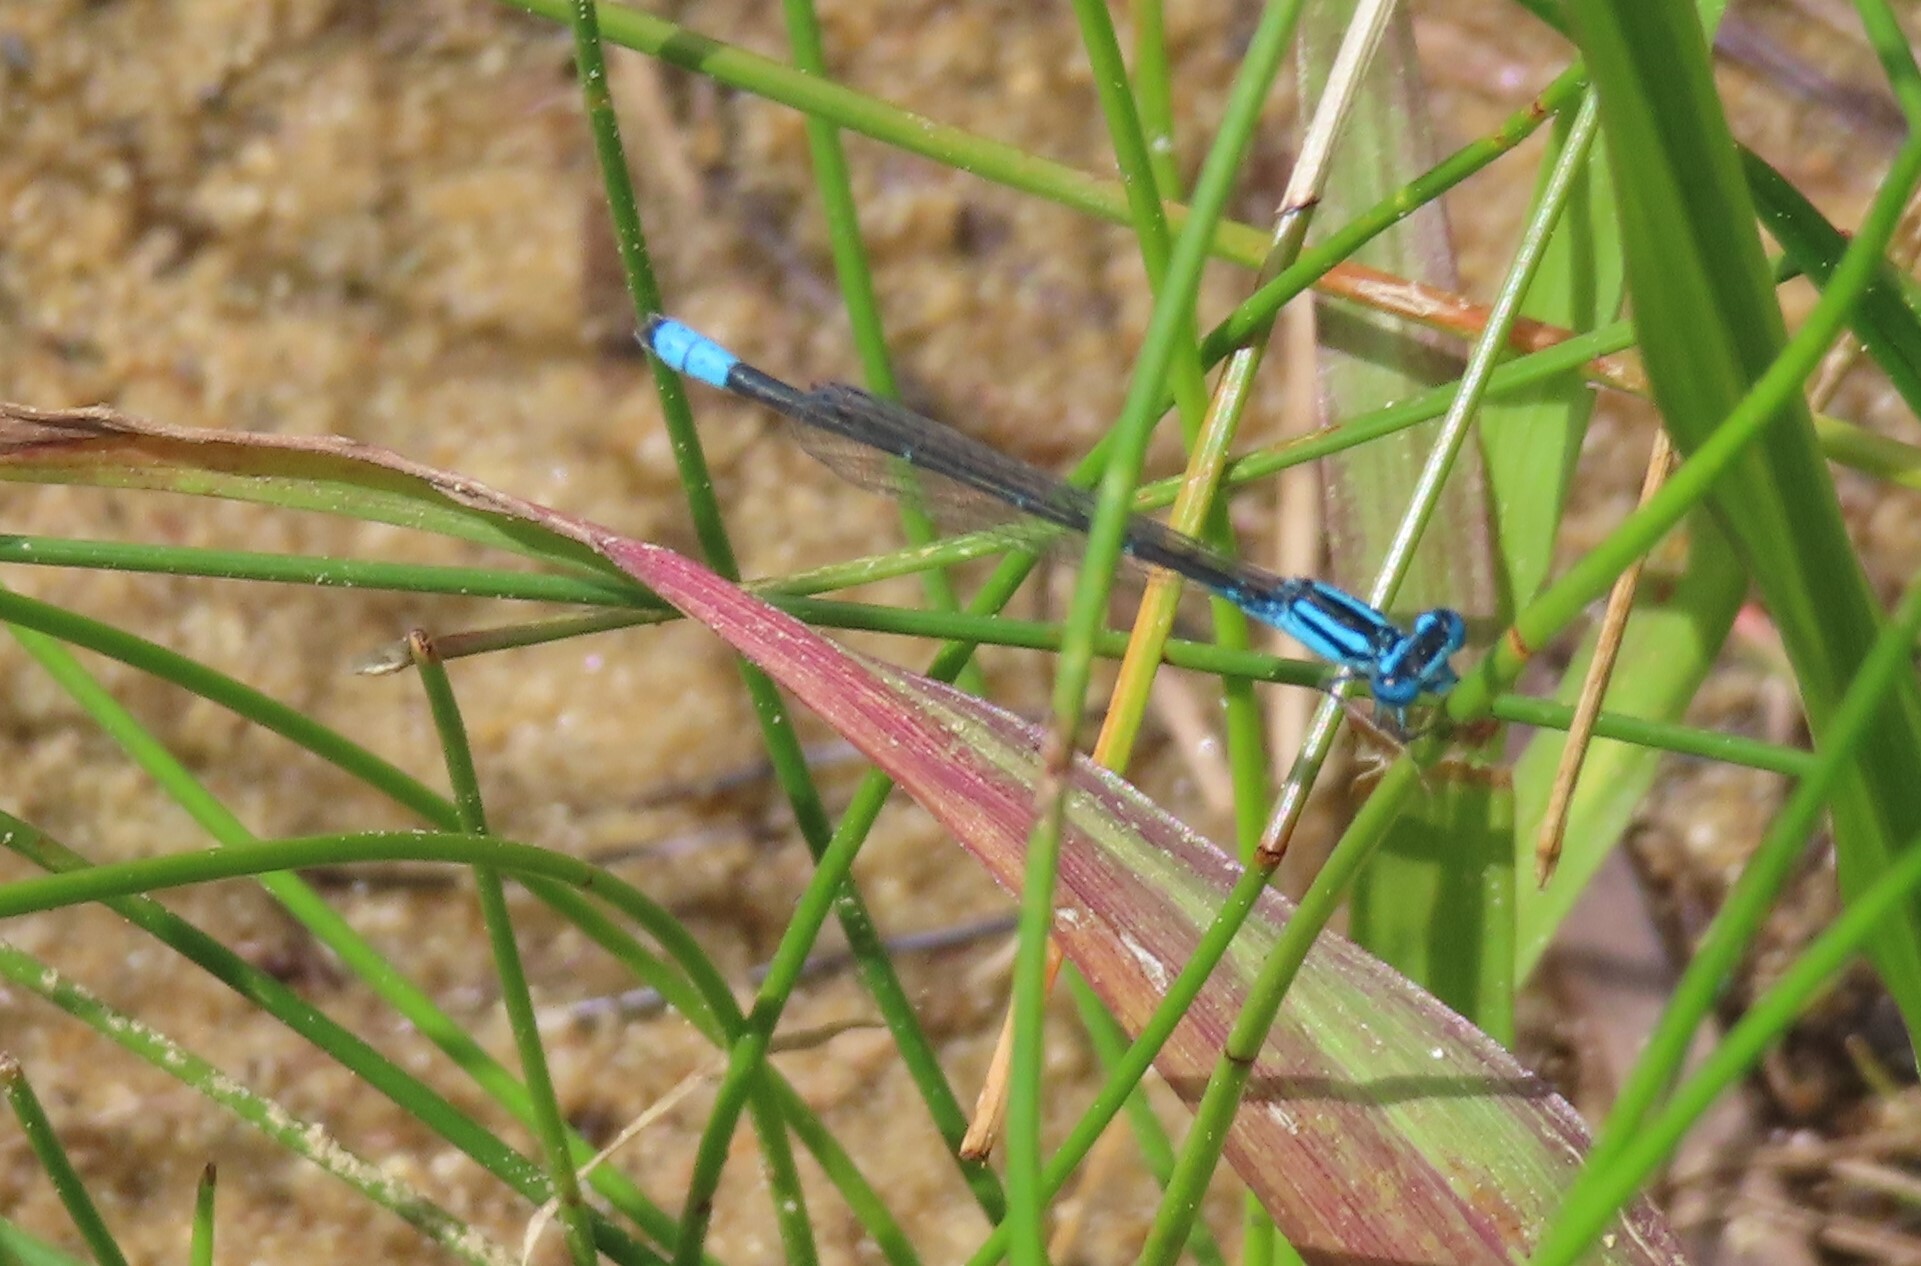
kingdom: Animalia
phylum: Arthropoda
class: Insecta
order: Odonata
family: Coenagrionidae
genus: Enallagma
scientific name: Enallagma divagans
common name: Turquoise bluet
